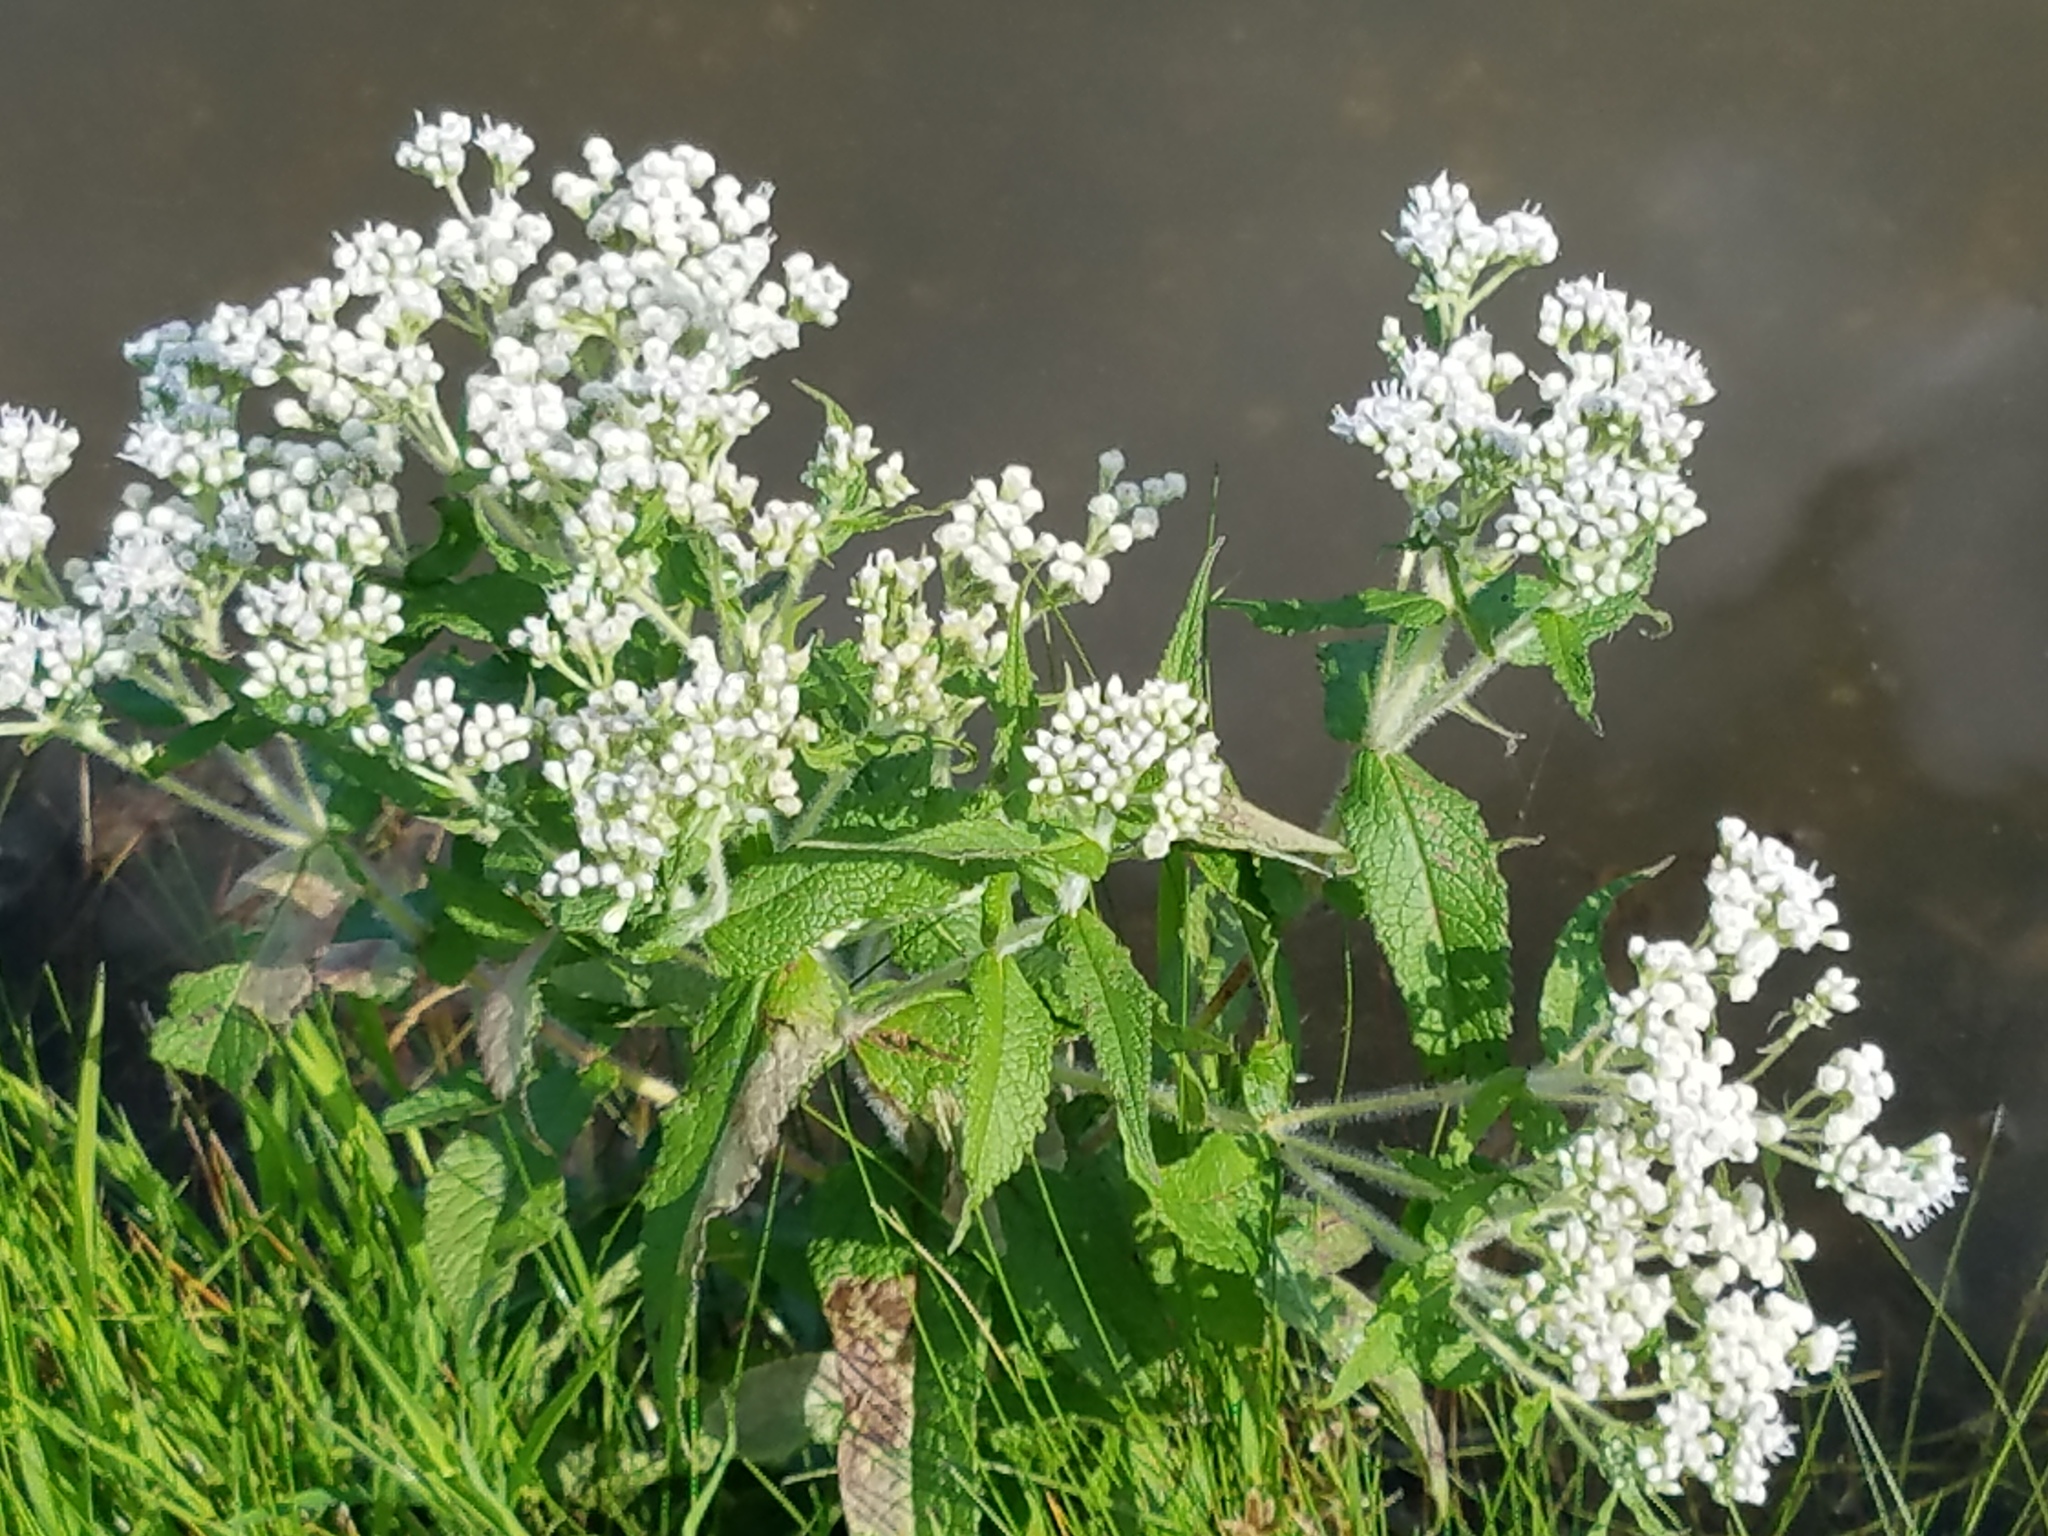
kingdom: Plantae
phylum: Tracheophyta
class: Magnoliopsida
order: Asterales
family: Asteraceae
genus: Eupatorium
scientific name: Eupatorium perfoliatum
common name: Boneset
